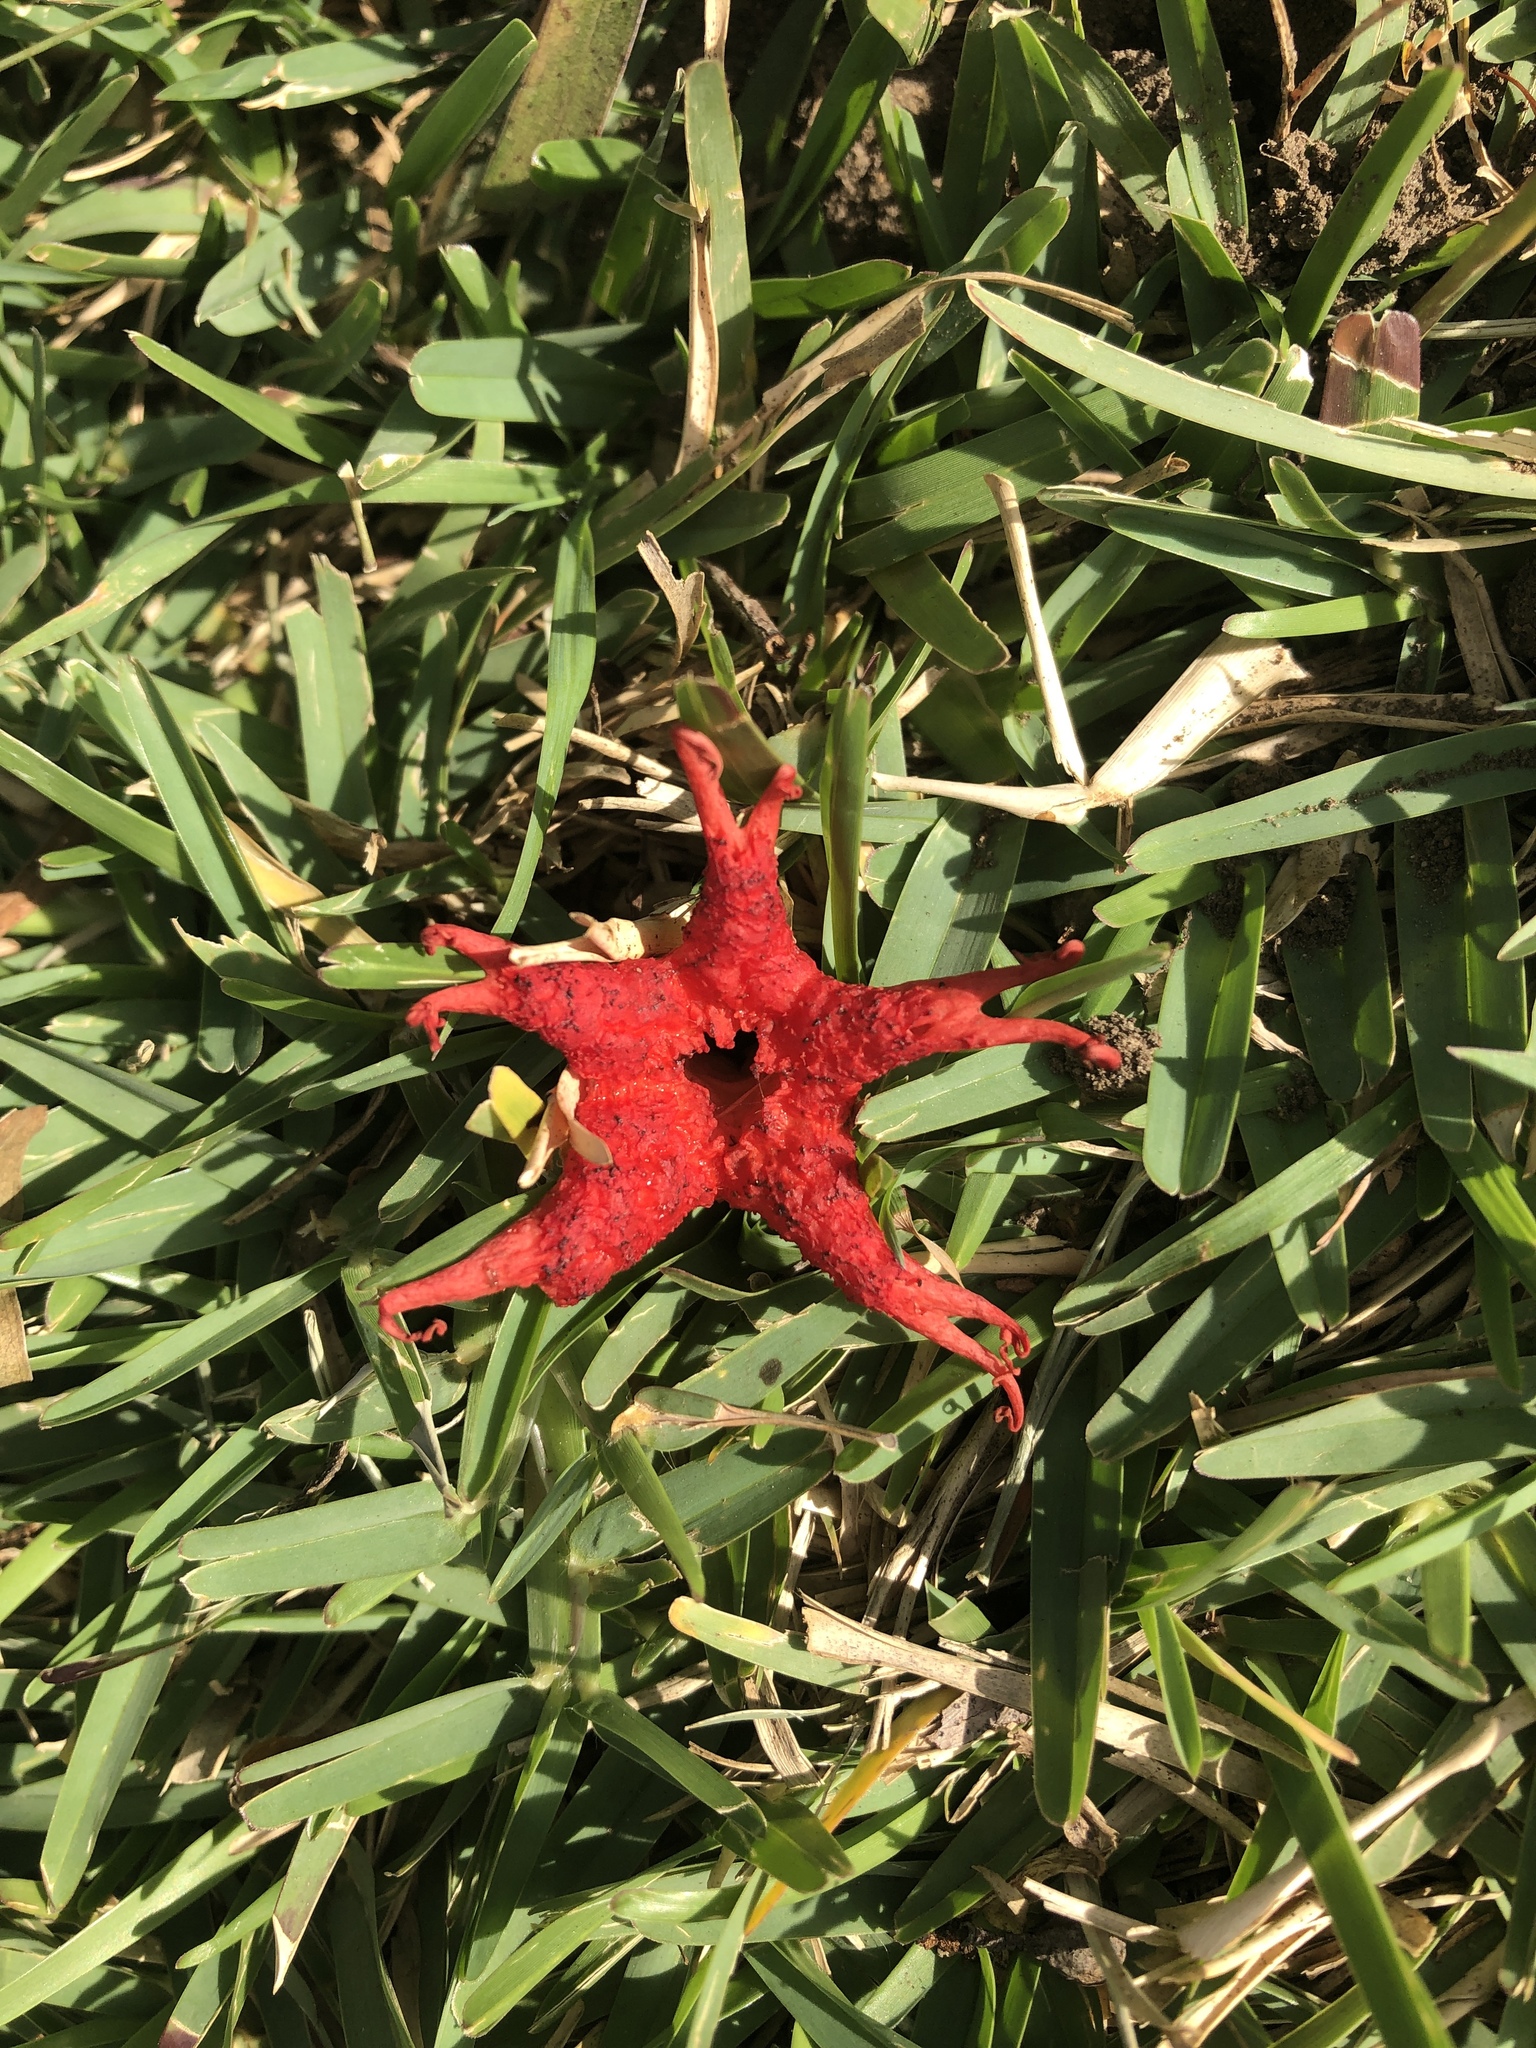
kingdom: Fungi
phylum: Basidiomycota
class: Agaricomycetes
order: Phallales
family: Phallaceae
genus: Aseroe
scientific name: Aseroe rubra
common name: Starfish fungus
